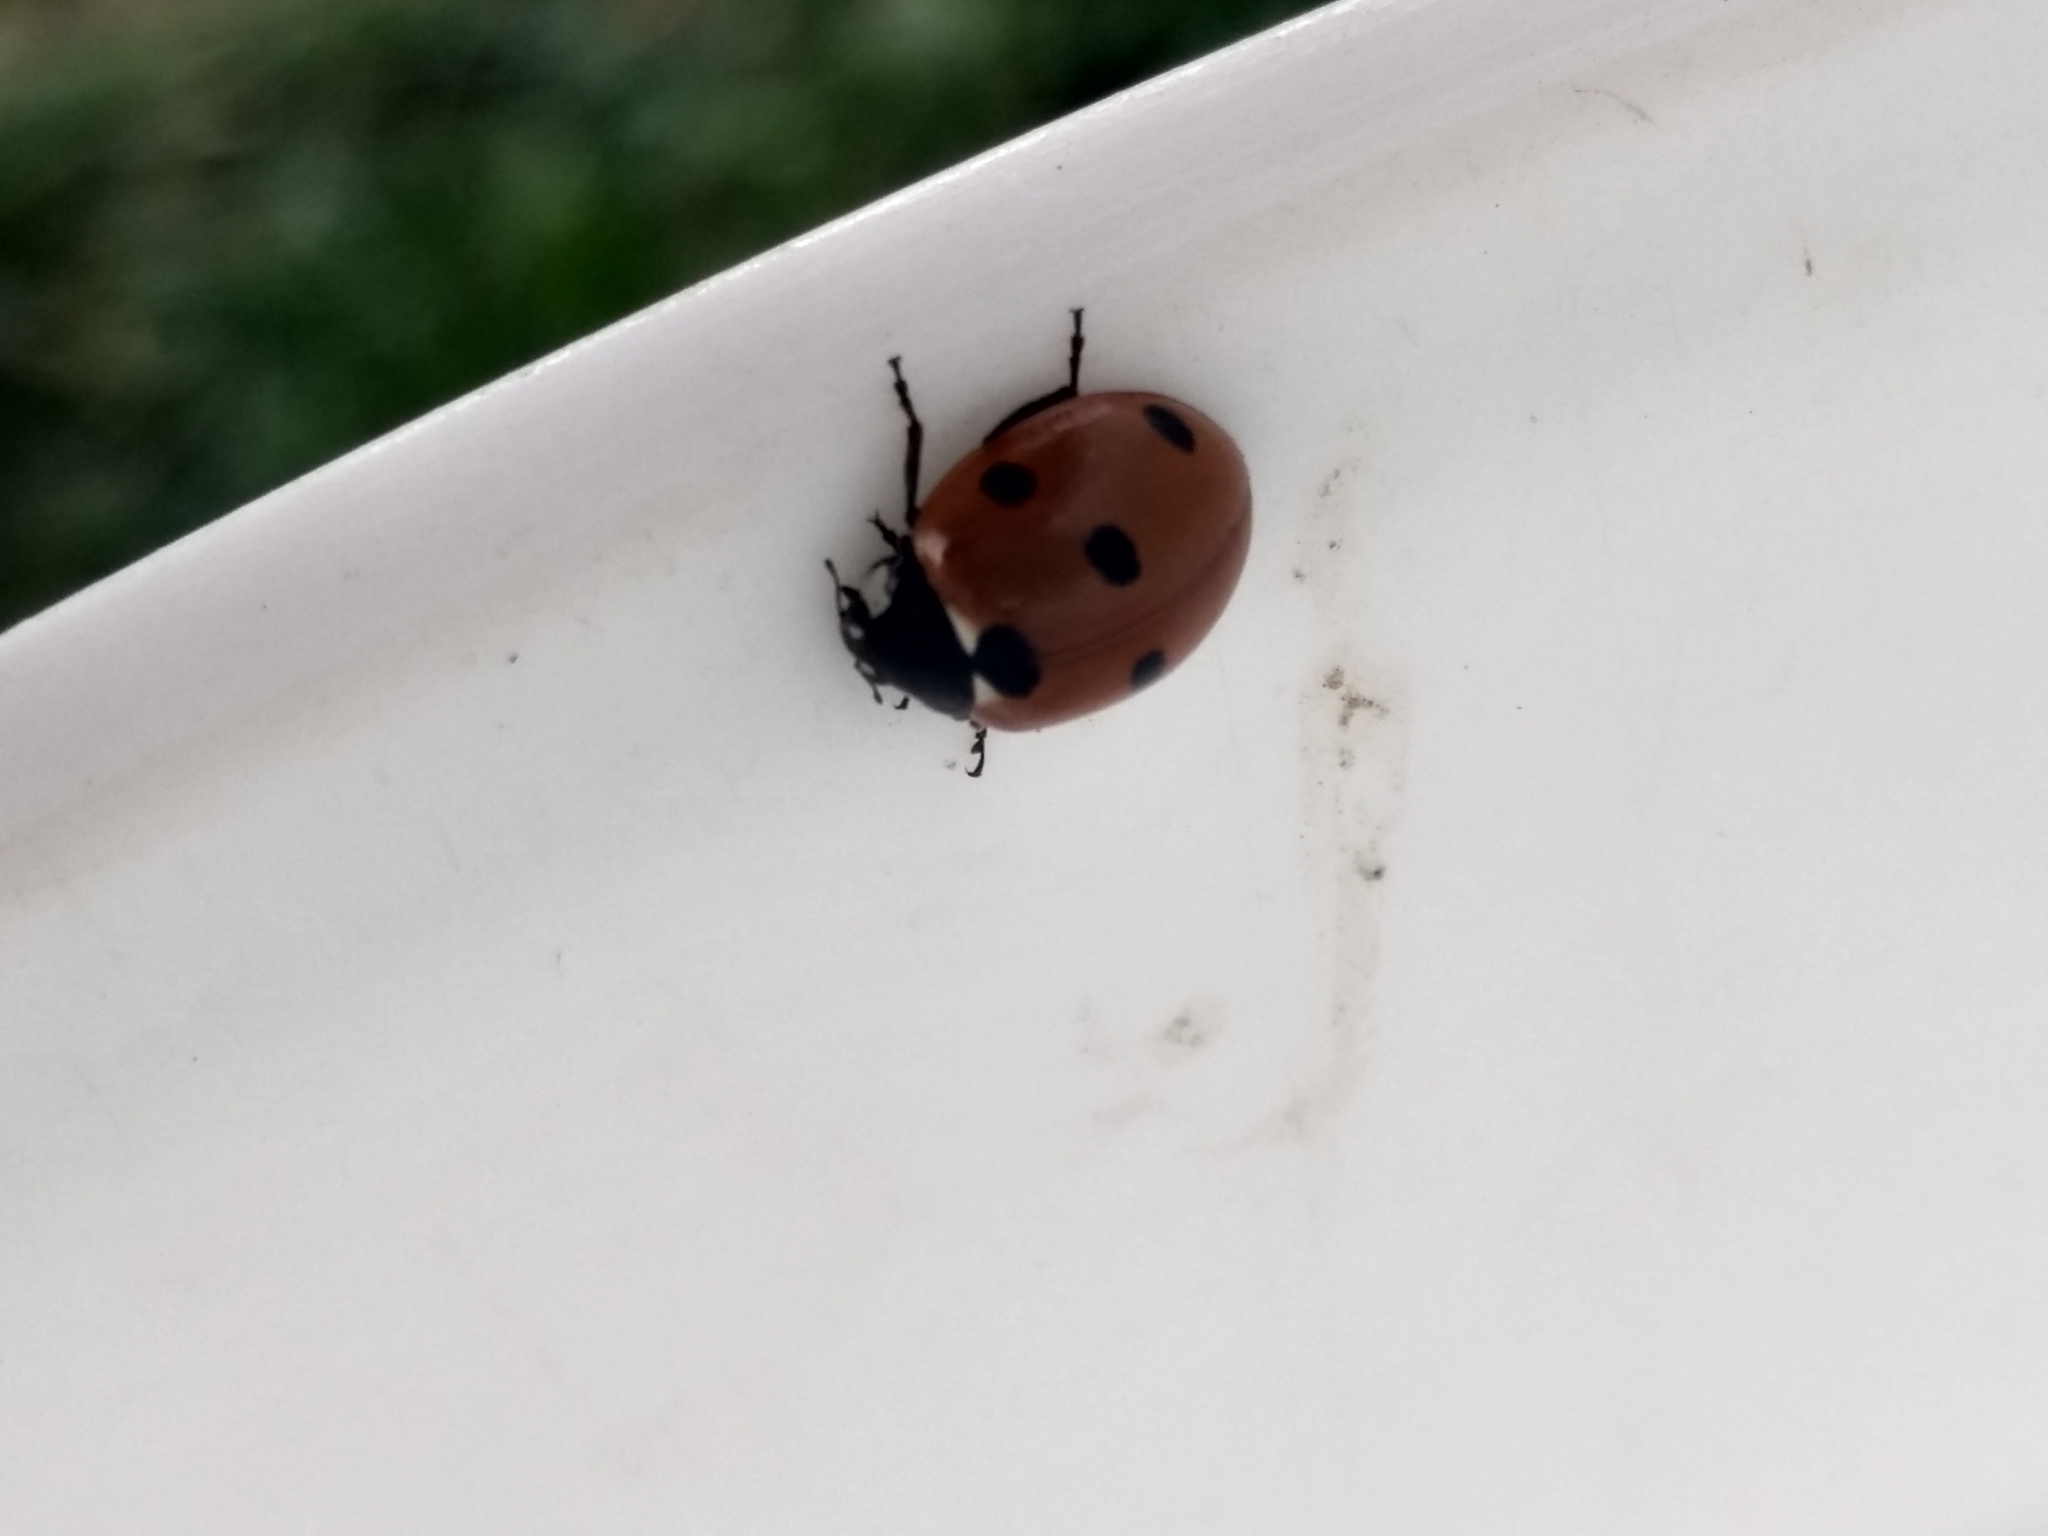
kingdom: Animalia
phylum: Arthropoda
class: Insecta
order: Coleoptera
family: Coccinellidae
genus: Coccinella
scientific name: Coccinella septempunctata
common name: Sevenspotted lady beetle
